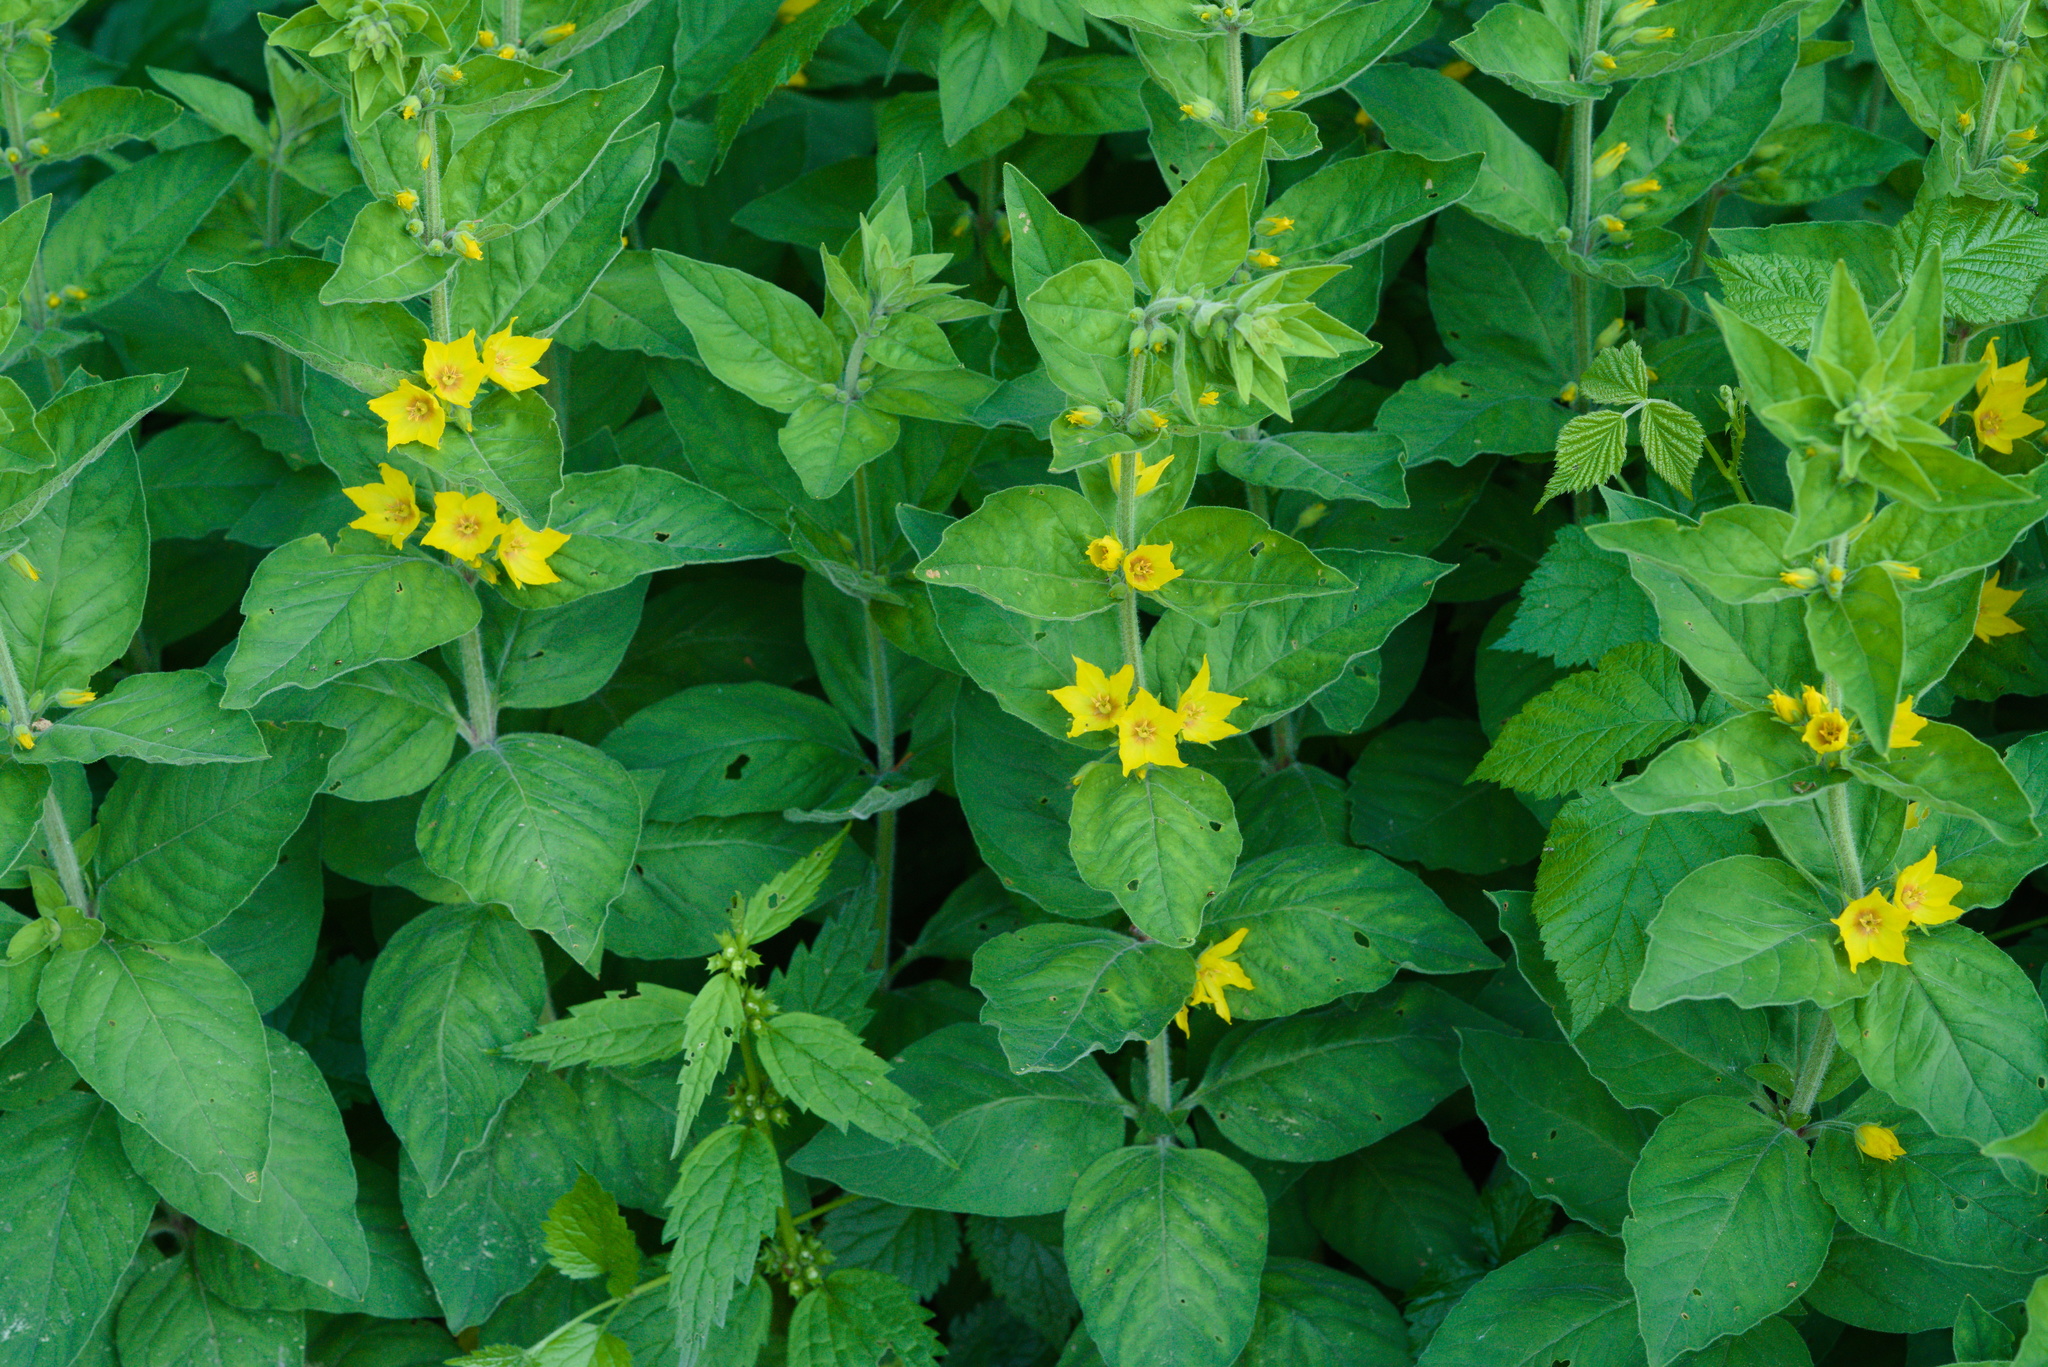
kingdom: Plantae
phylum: Tracheophyta
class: Magnoliopsida
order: Ericales
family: Primulaceae
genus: Lysimachia
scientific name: Lysimachia punctata
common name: Dotted loosestrife
